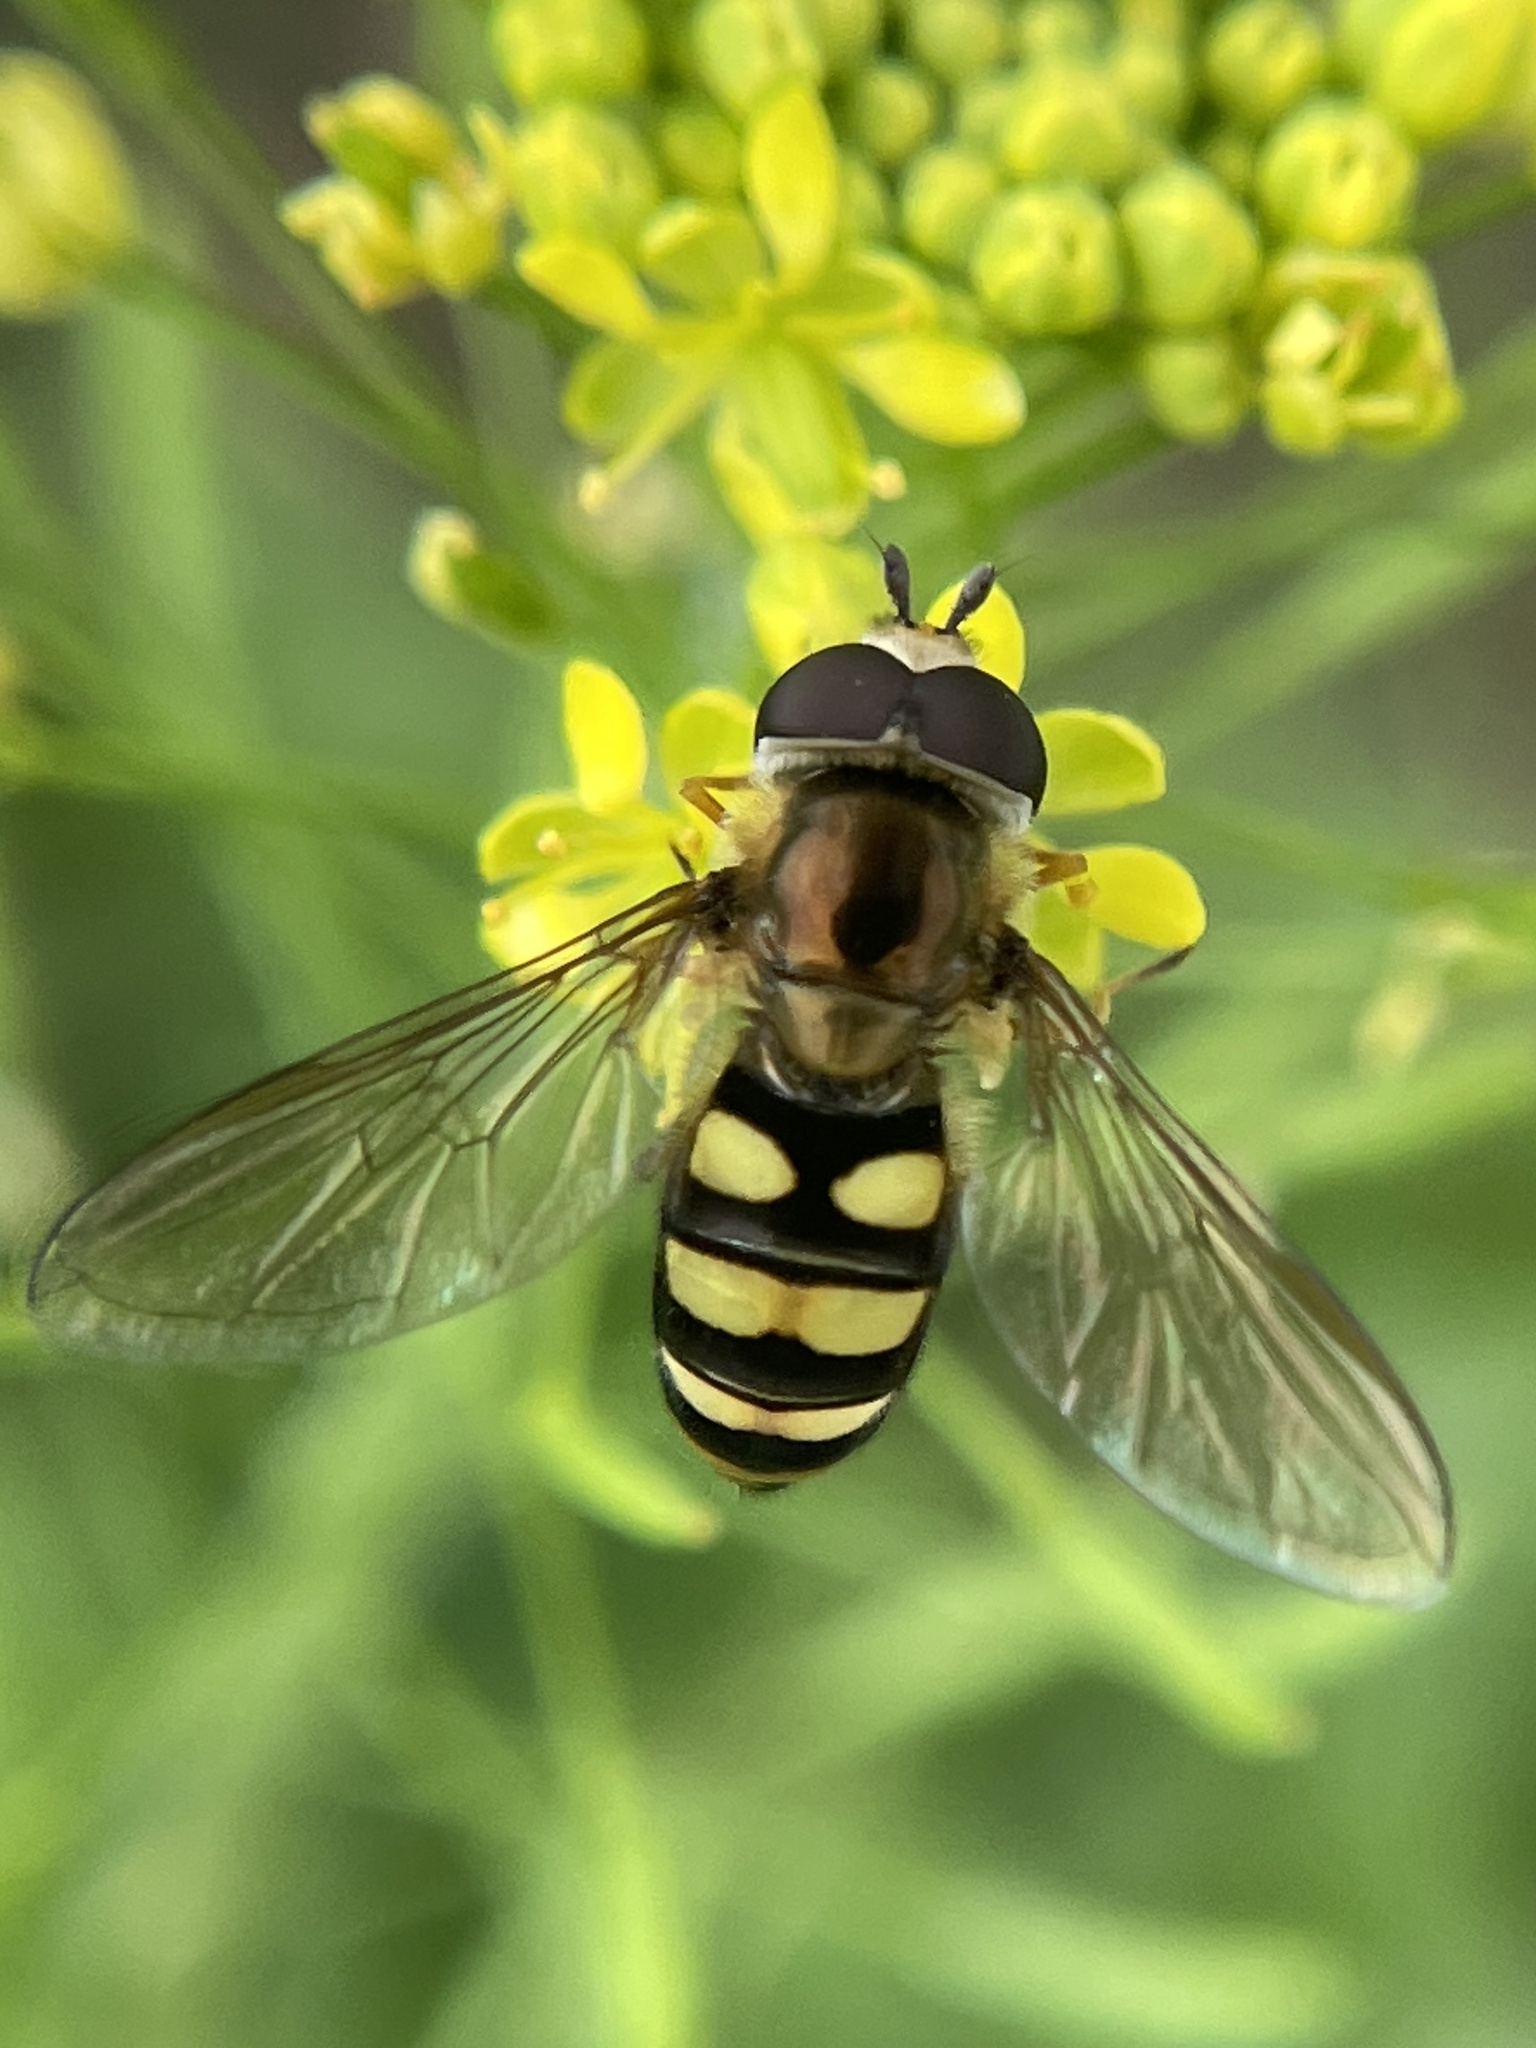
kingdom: Animalia
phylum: Arthropoda
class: Insecta
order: Diptera
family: Syrphidae
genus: Eupeodes
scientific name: Eupeodes
